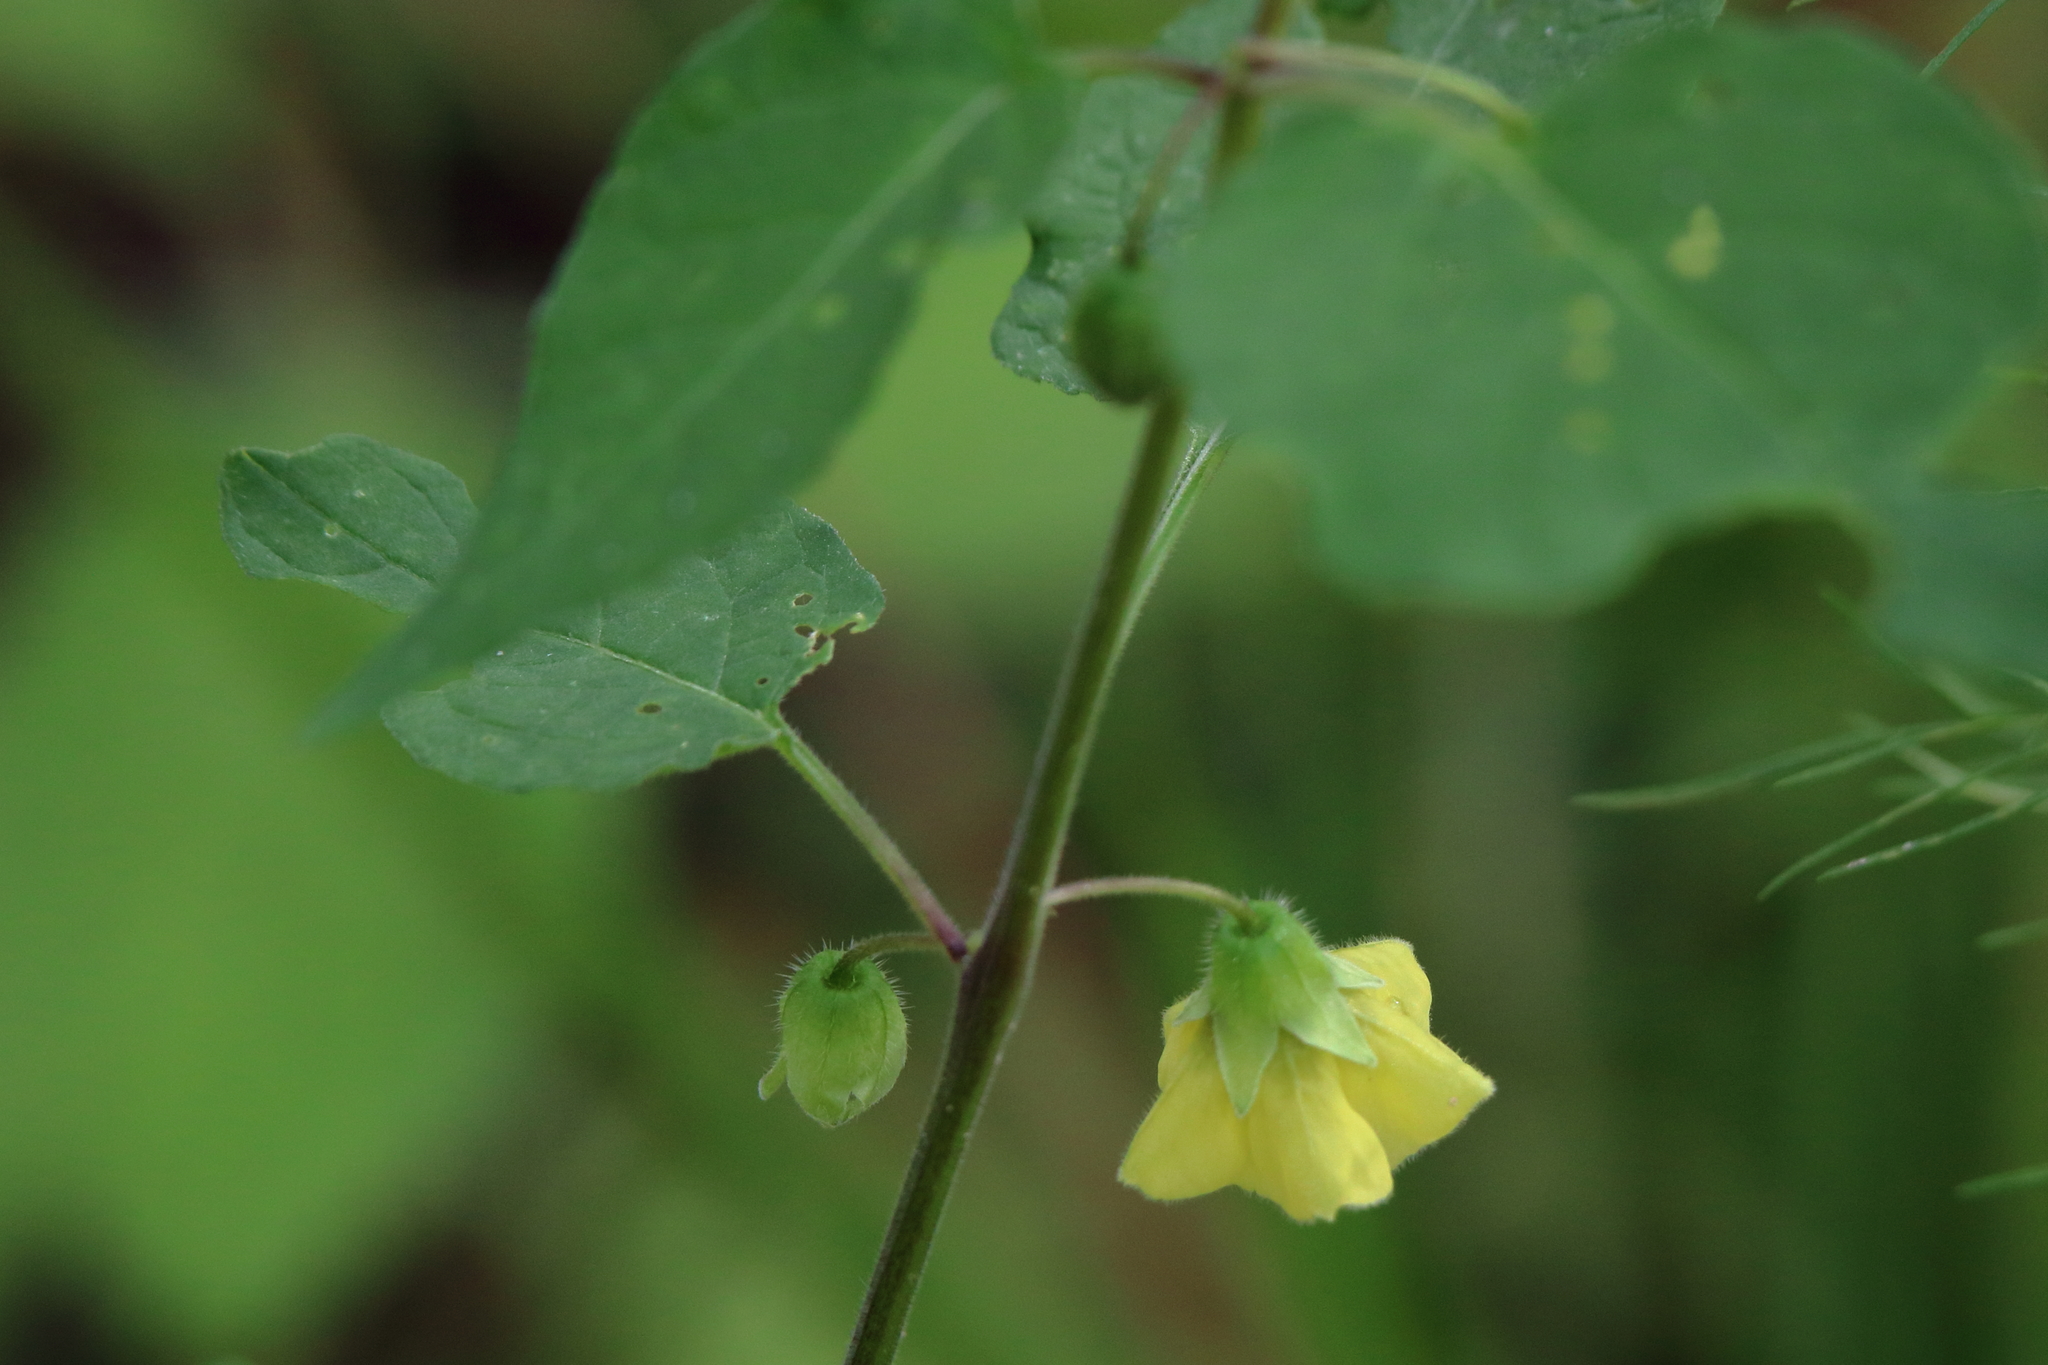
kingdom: Plantae
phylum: Tracheophyta
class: Magnoliopsida
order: Solanales
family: Solanaceae
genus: Calliphysalis
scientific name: Calliphysalis carpenteri
